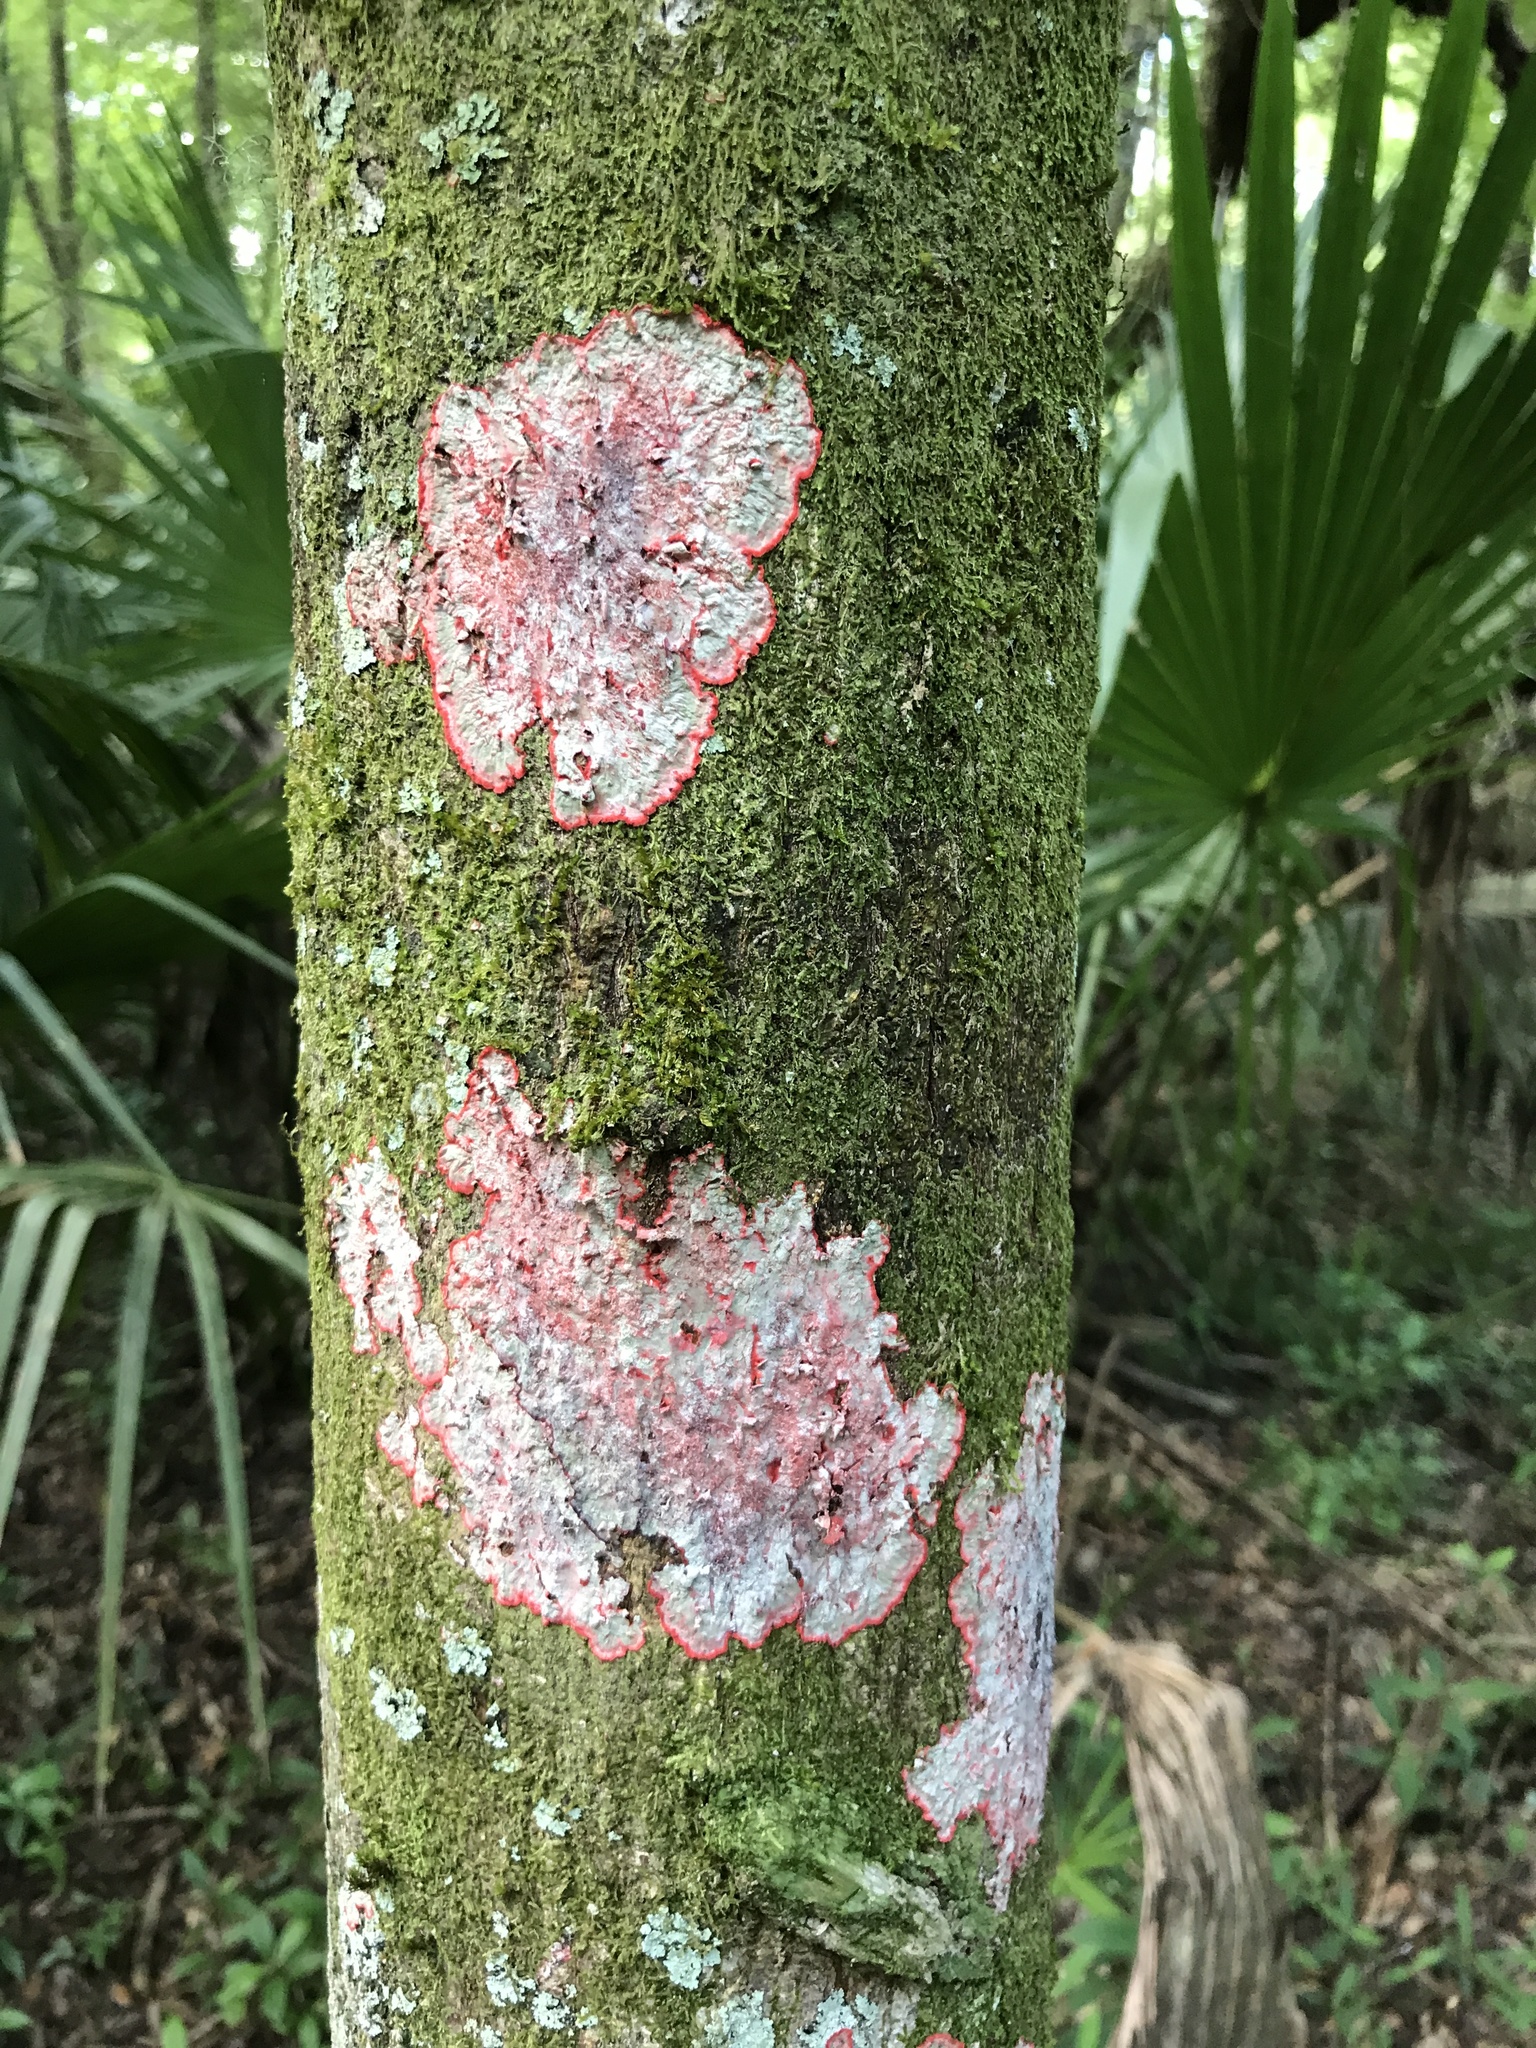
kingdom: Fungi
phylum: Ascomycota
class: Arthoniomycetes
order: Arthoniales
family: Arthoniaceae
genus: Herpothallon
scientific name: Herpothallon rubrocinctum
